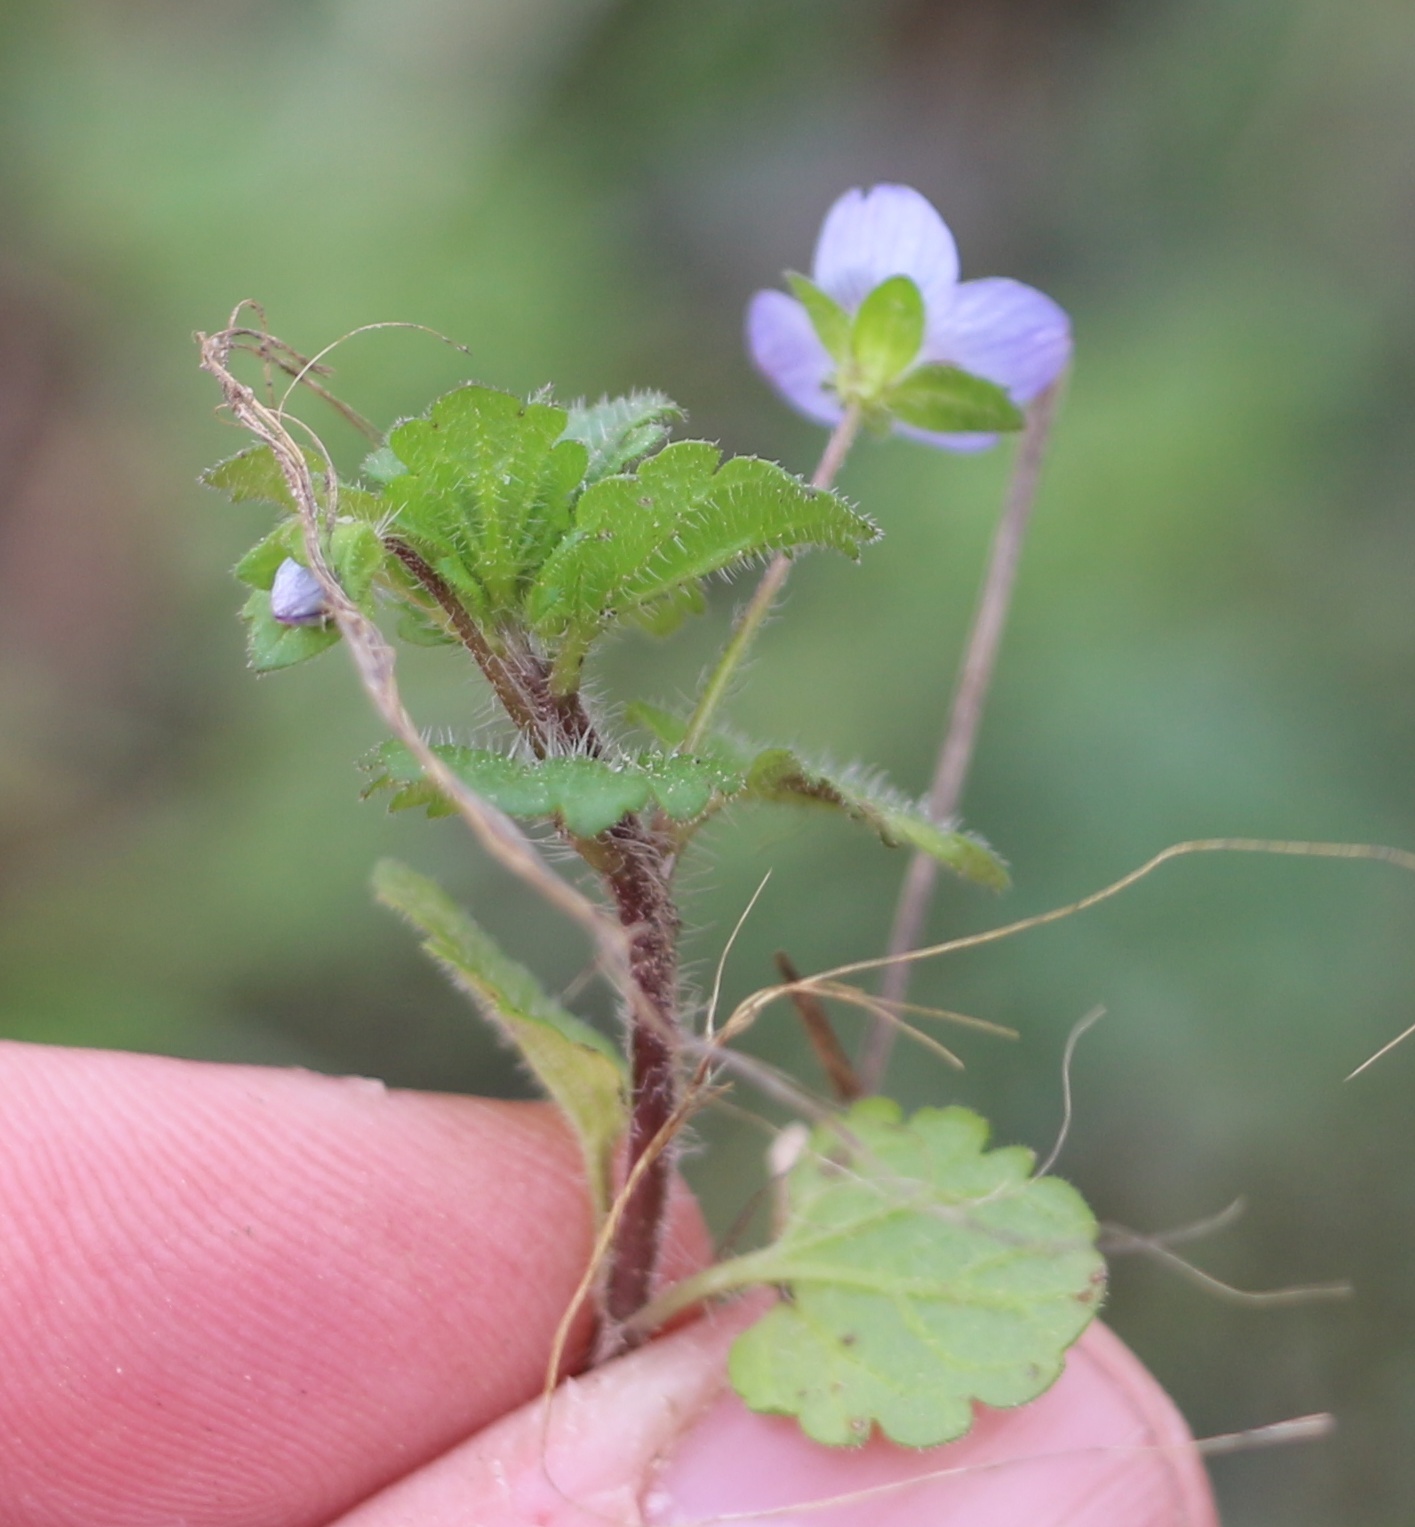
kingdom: Plantae
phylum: Tracheophyta
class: Magnoliopsida
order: Lamiales
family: Plantaginaceae
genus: Veronica
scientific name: Veronica persica
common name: Common field-speedwell
